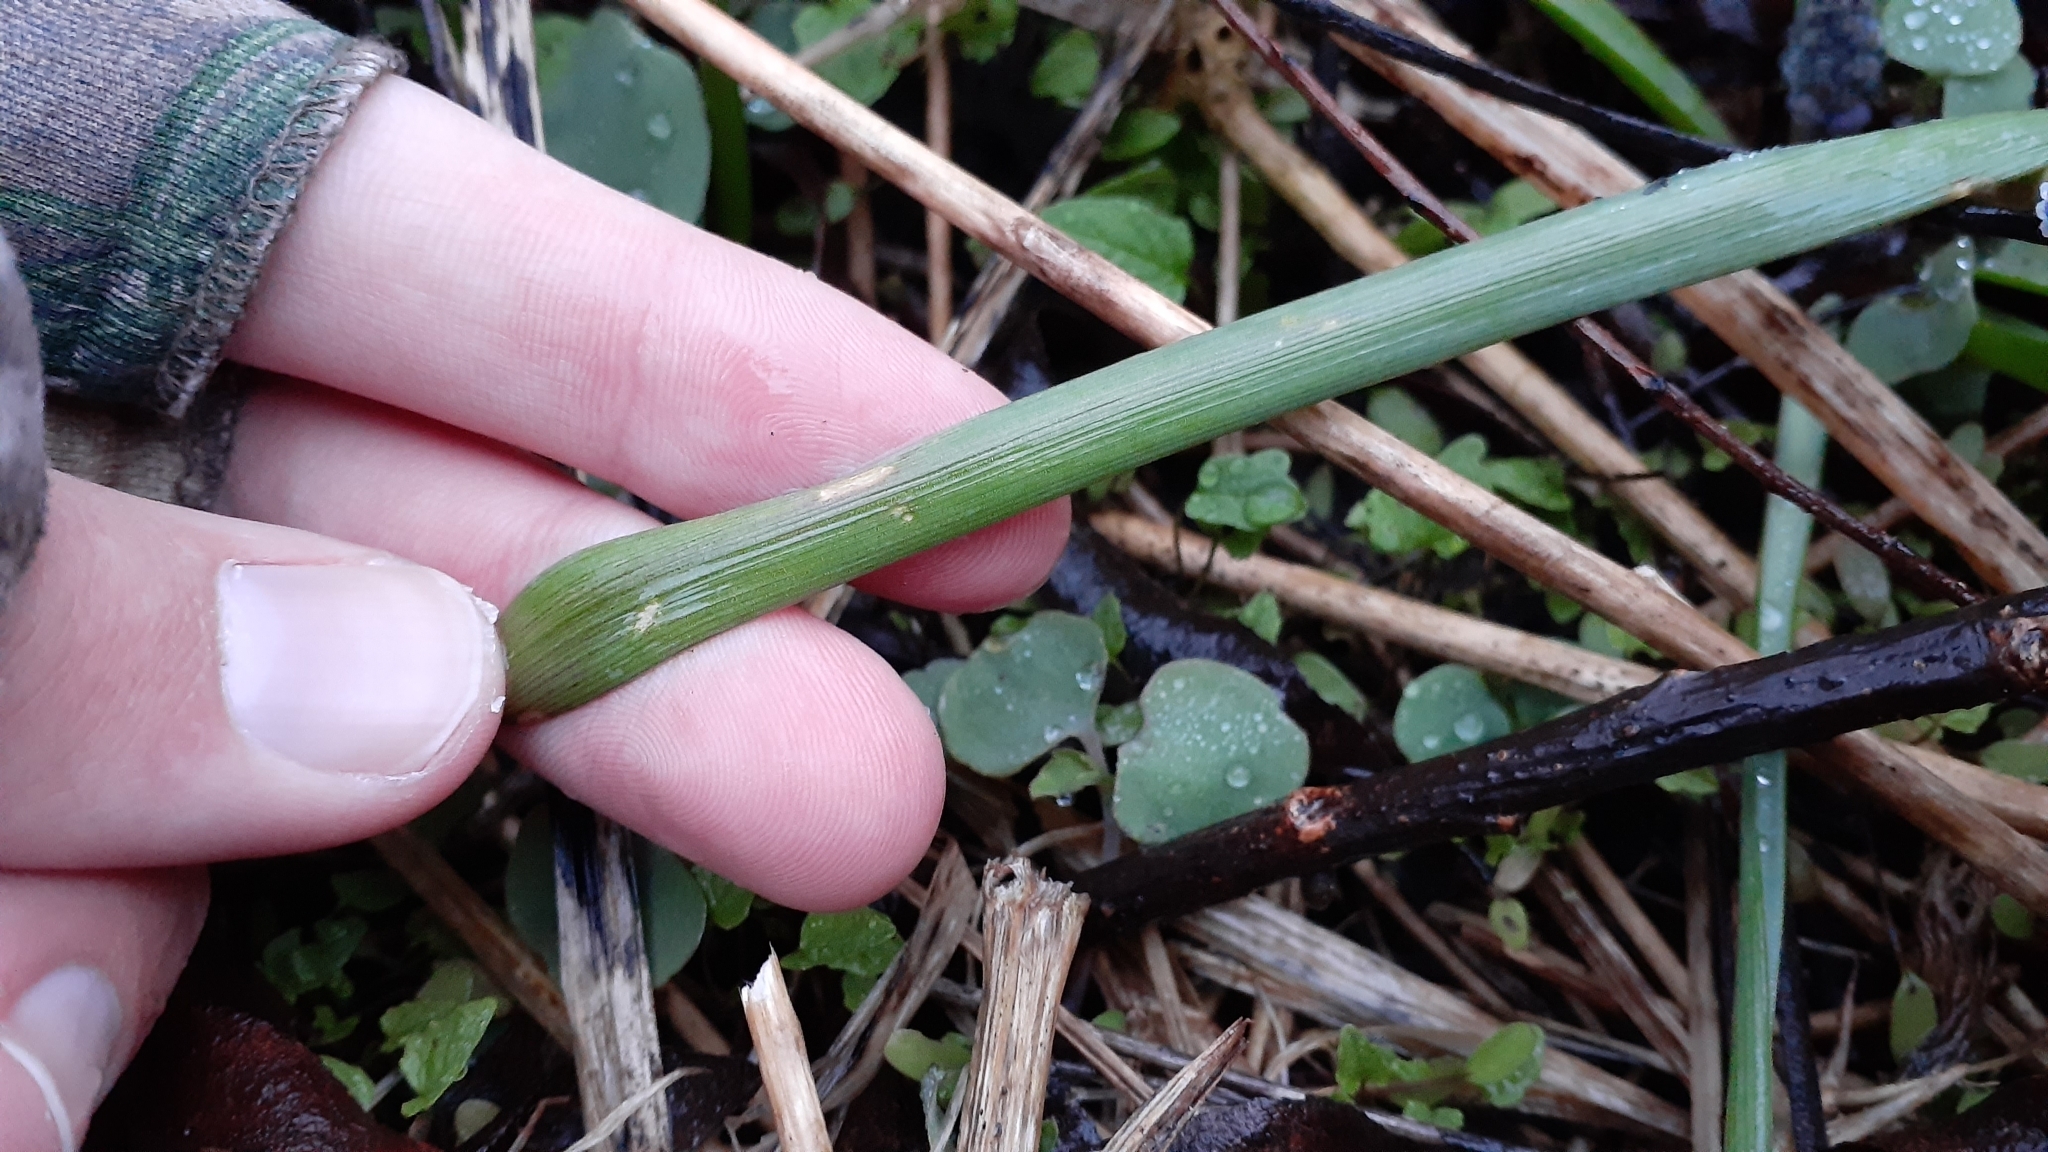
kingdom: Plantae
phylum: Tracheophyta
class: Liliopsida
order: Asparagales
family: Asparagaceae
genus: Muscari
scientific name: Muscari botryoides
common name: Compact grape-hyacinth
